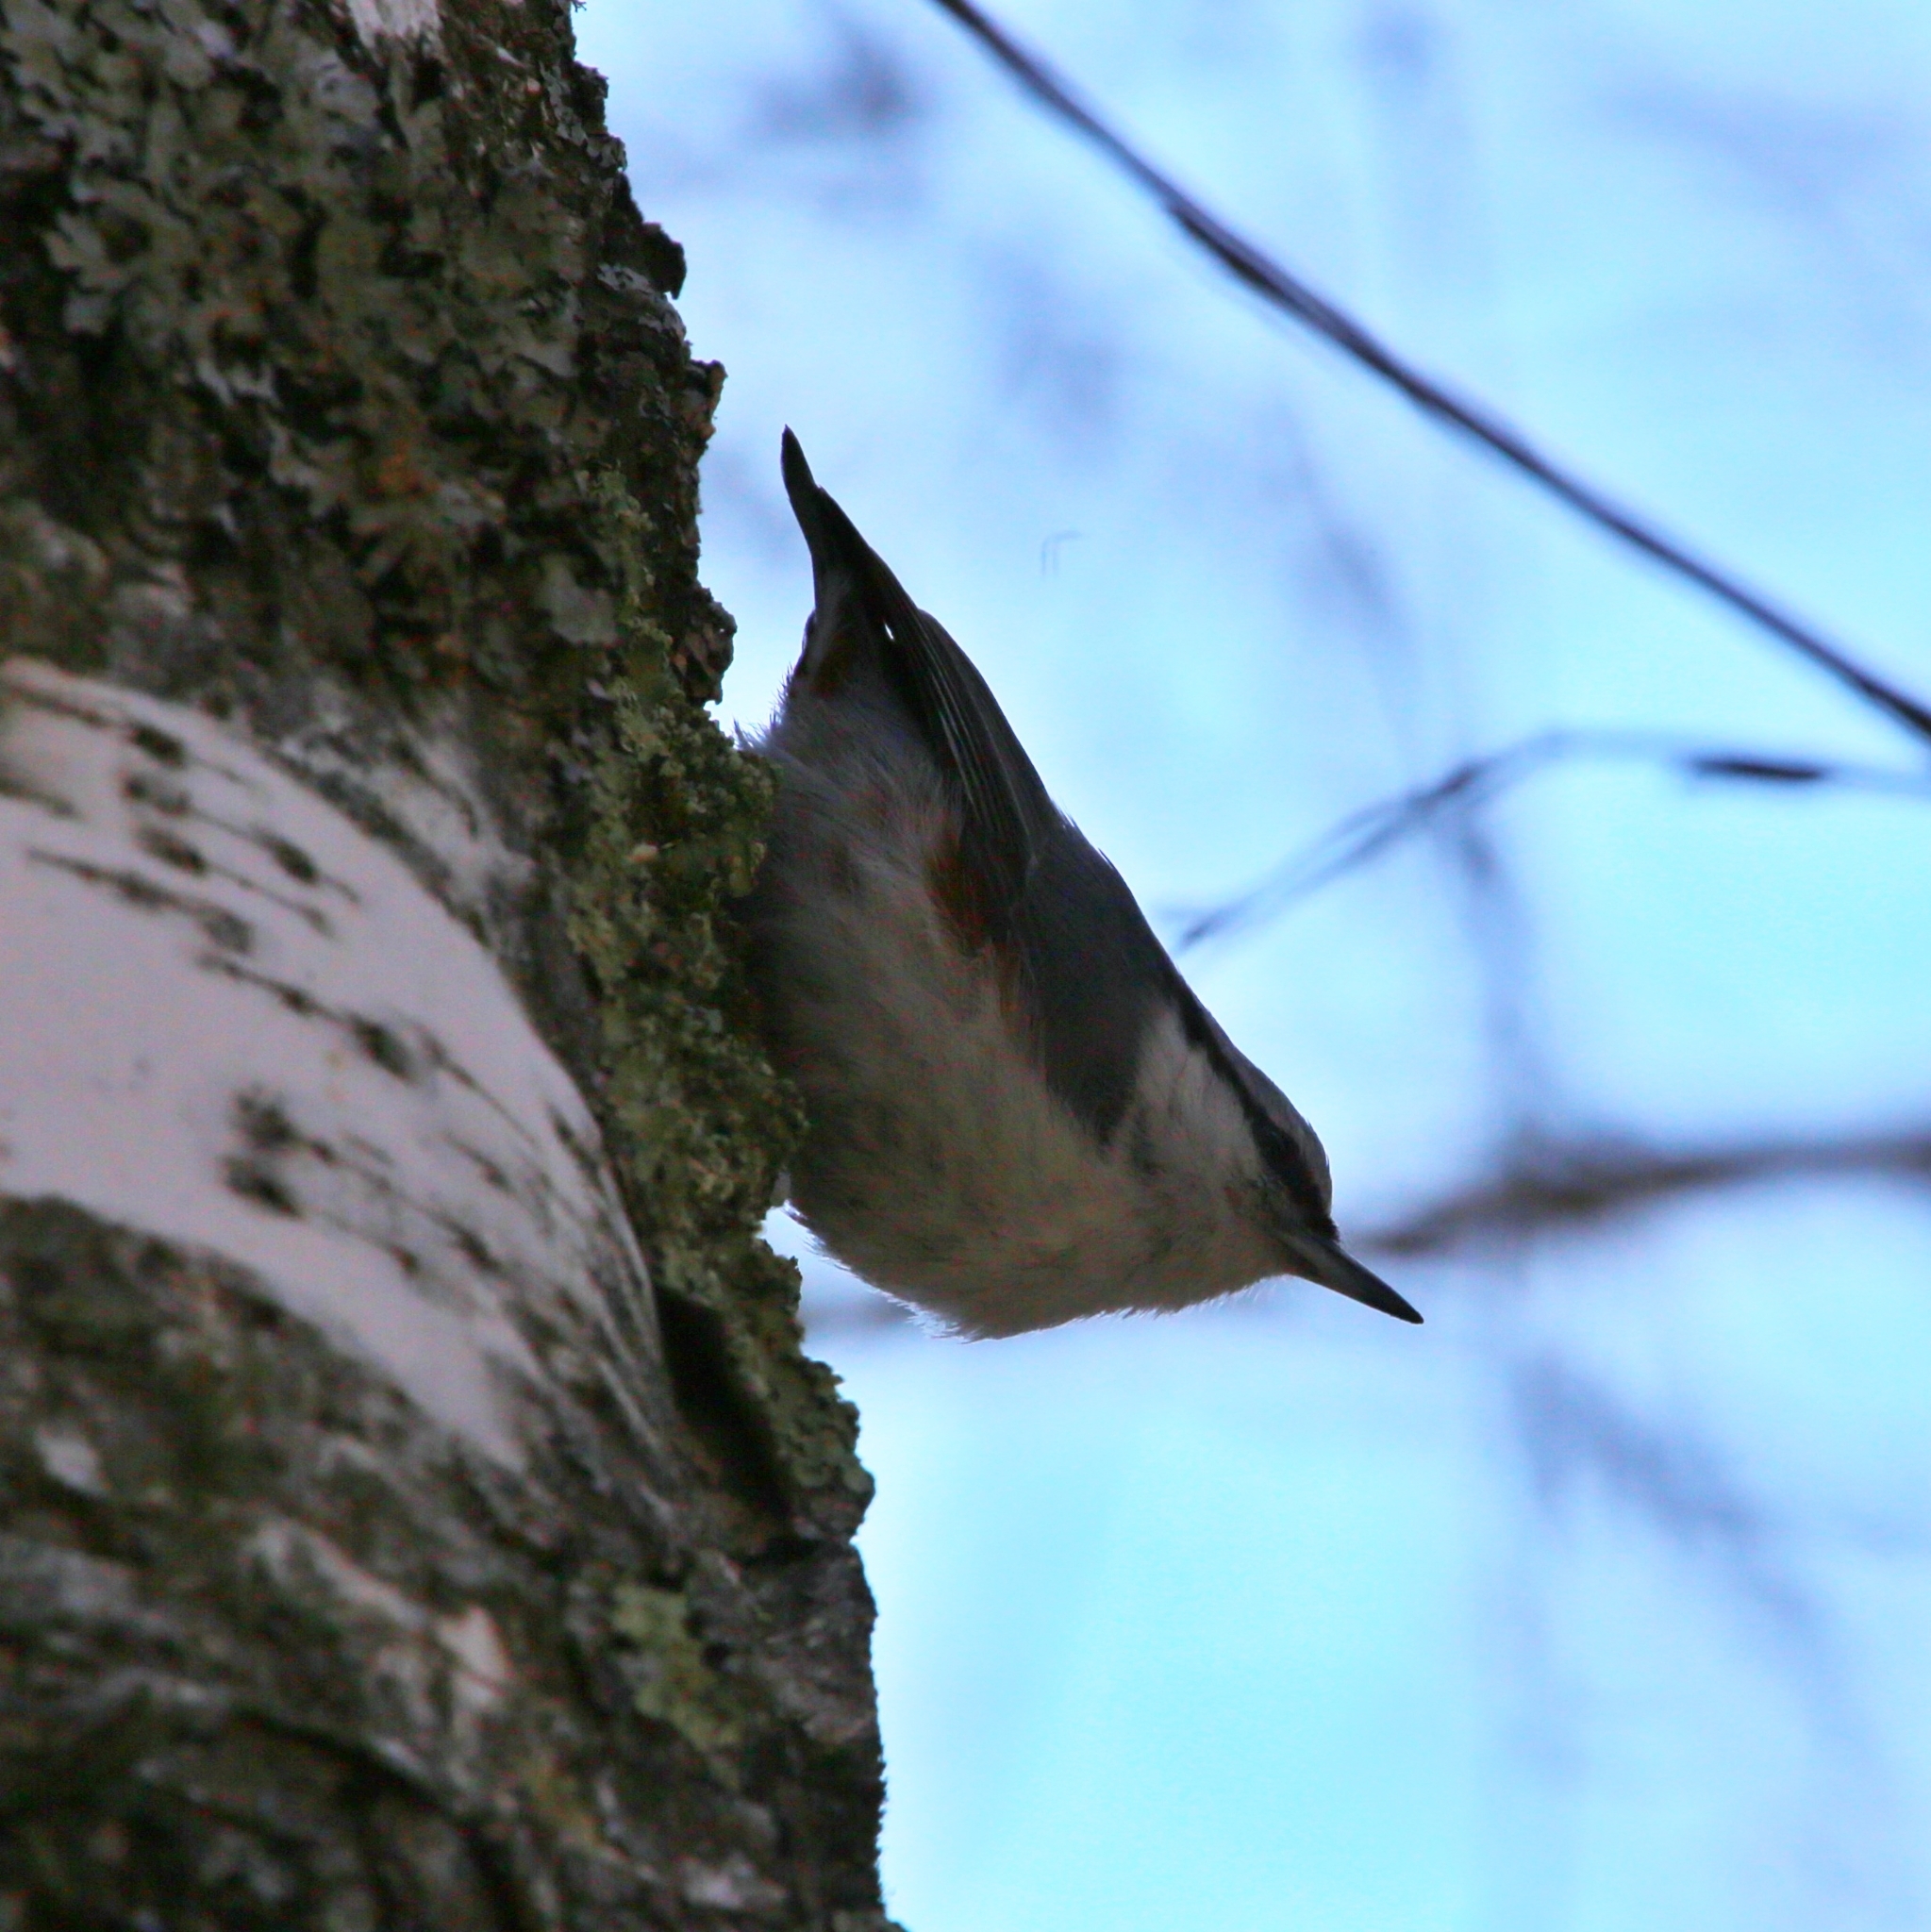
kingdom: Animalia
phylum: Chordata
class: Aves
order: Passeriformes
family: Sittidae
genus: Sitta
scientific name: Sitta europaea
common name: Eurasian nuthatch
